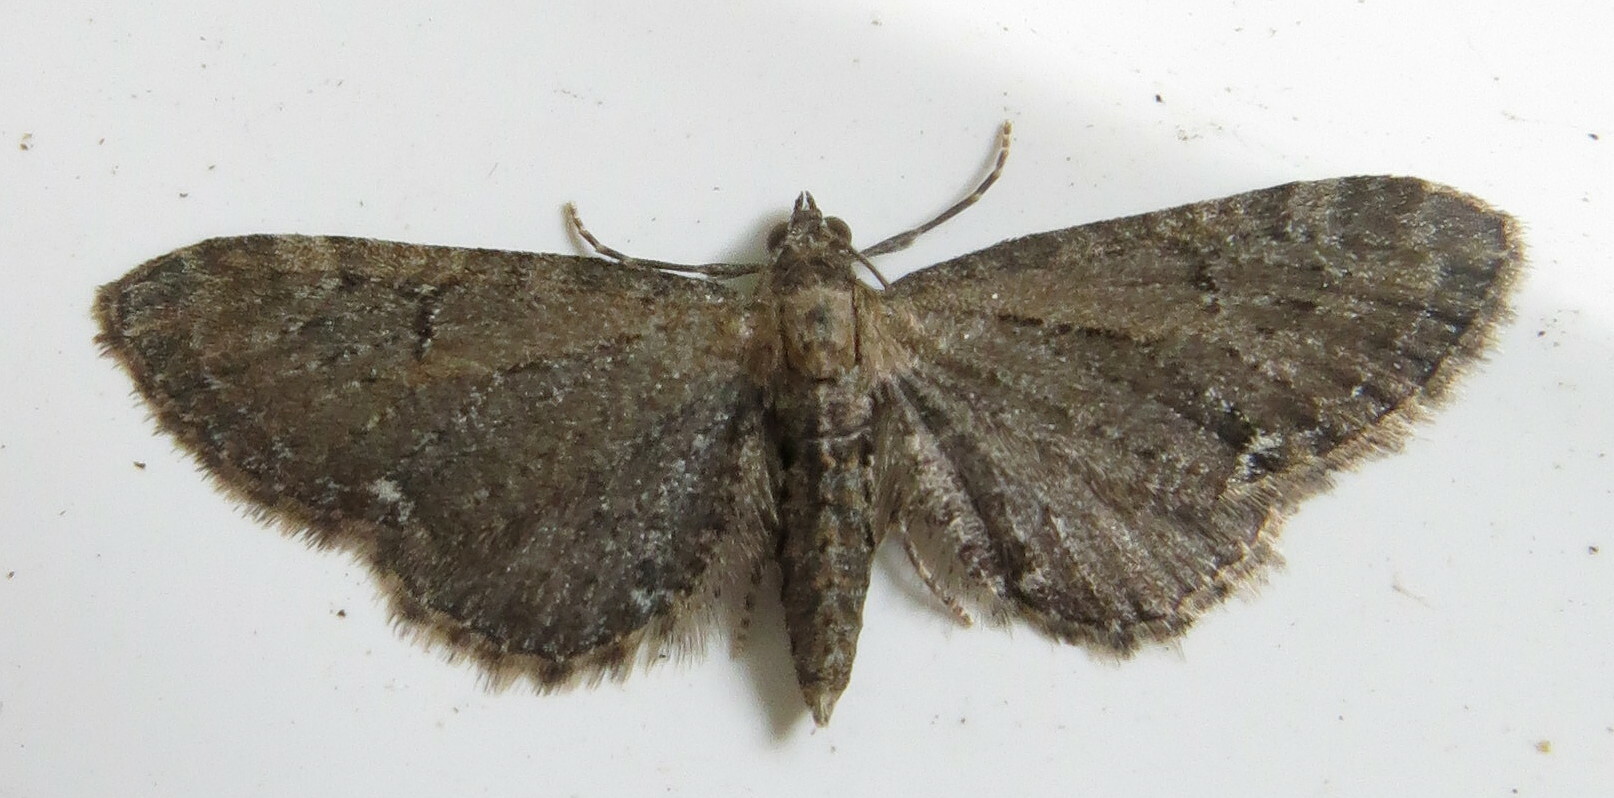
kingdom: Animalia
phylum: Arthropoda
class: Insecta
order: Lepidoptera
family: Geometridae
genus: Eupithecia
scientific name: Eupithecia vulgata
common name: Common pug
